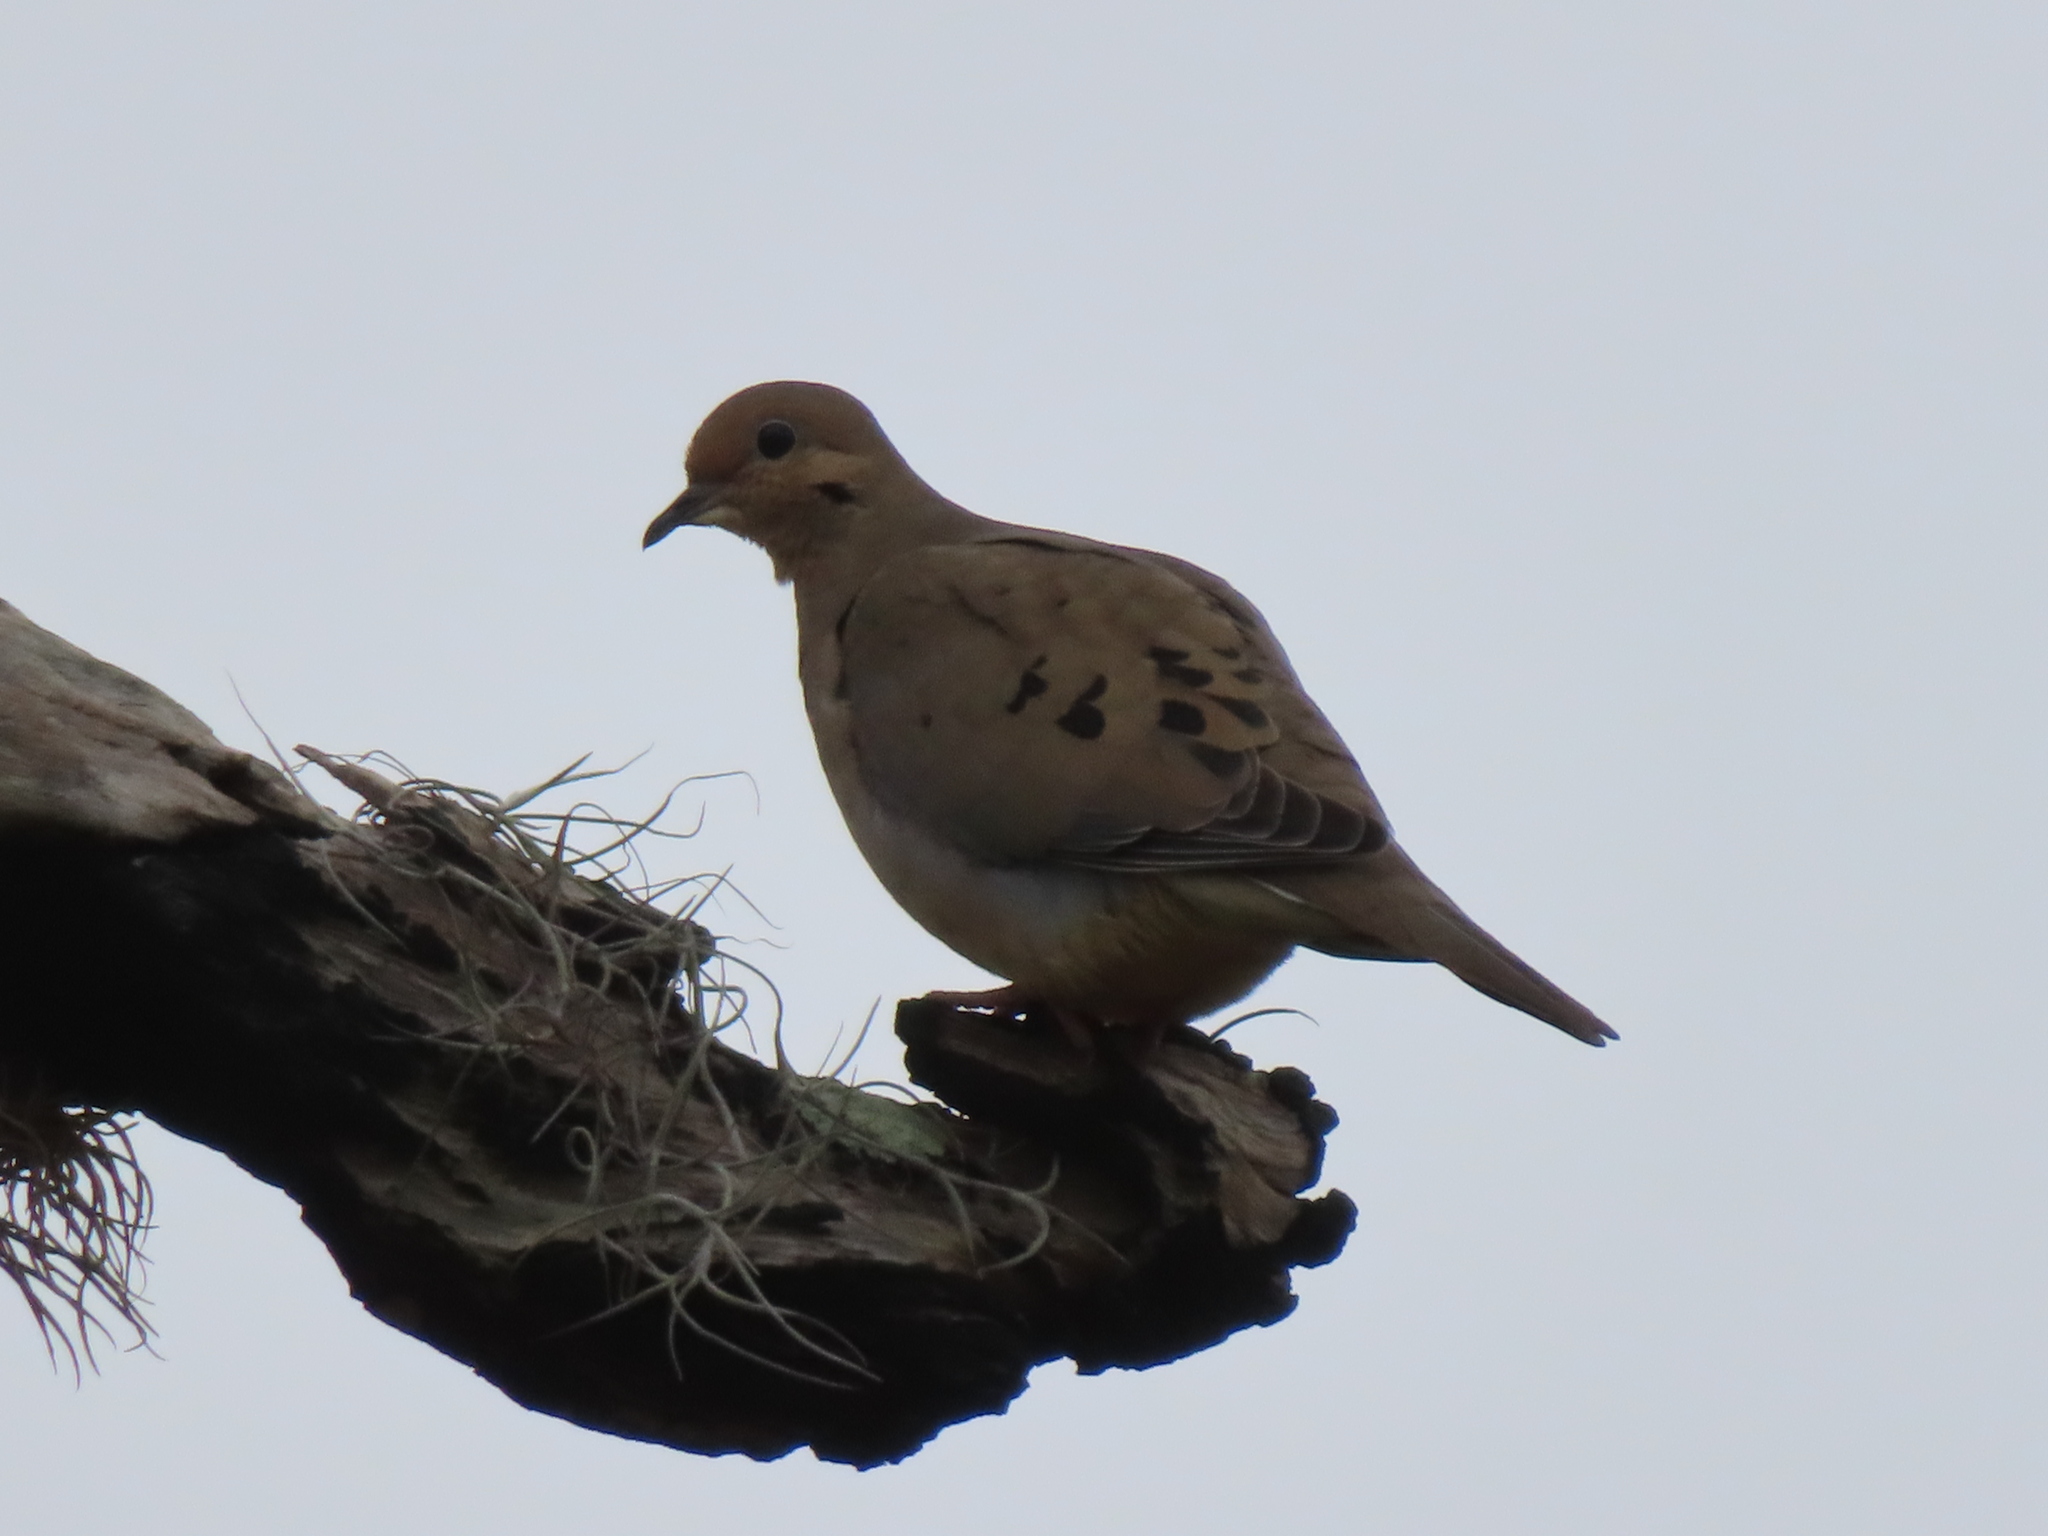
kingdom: Animalia
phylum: Chordata
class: Aves
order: Columbiformes
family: Columbidae
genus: Zenaida
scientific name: Zenaida macroura
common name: Mourning dove
